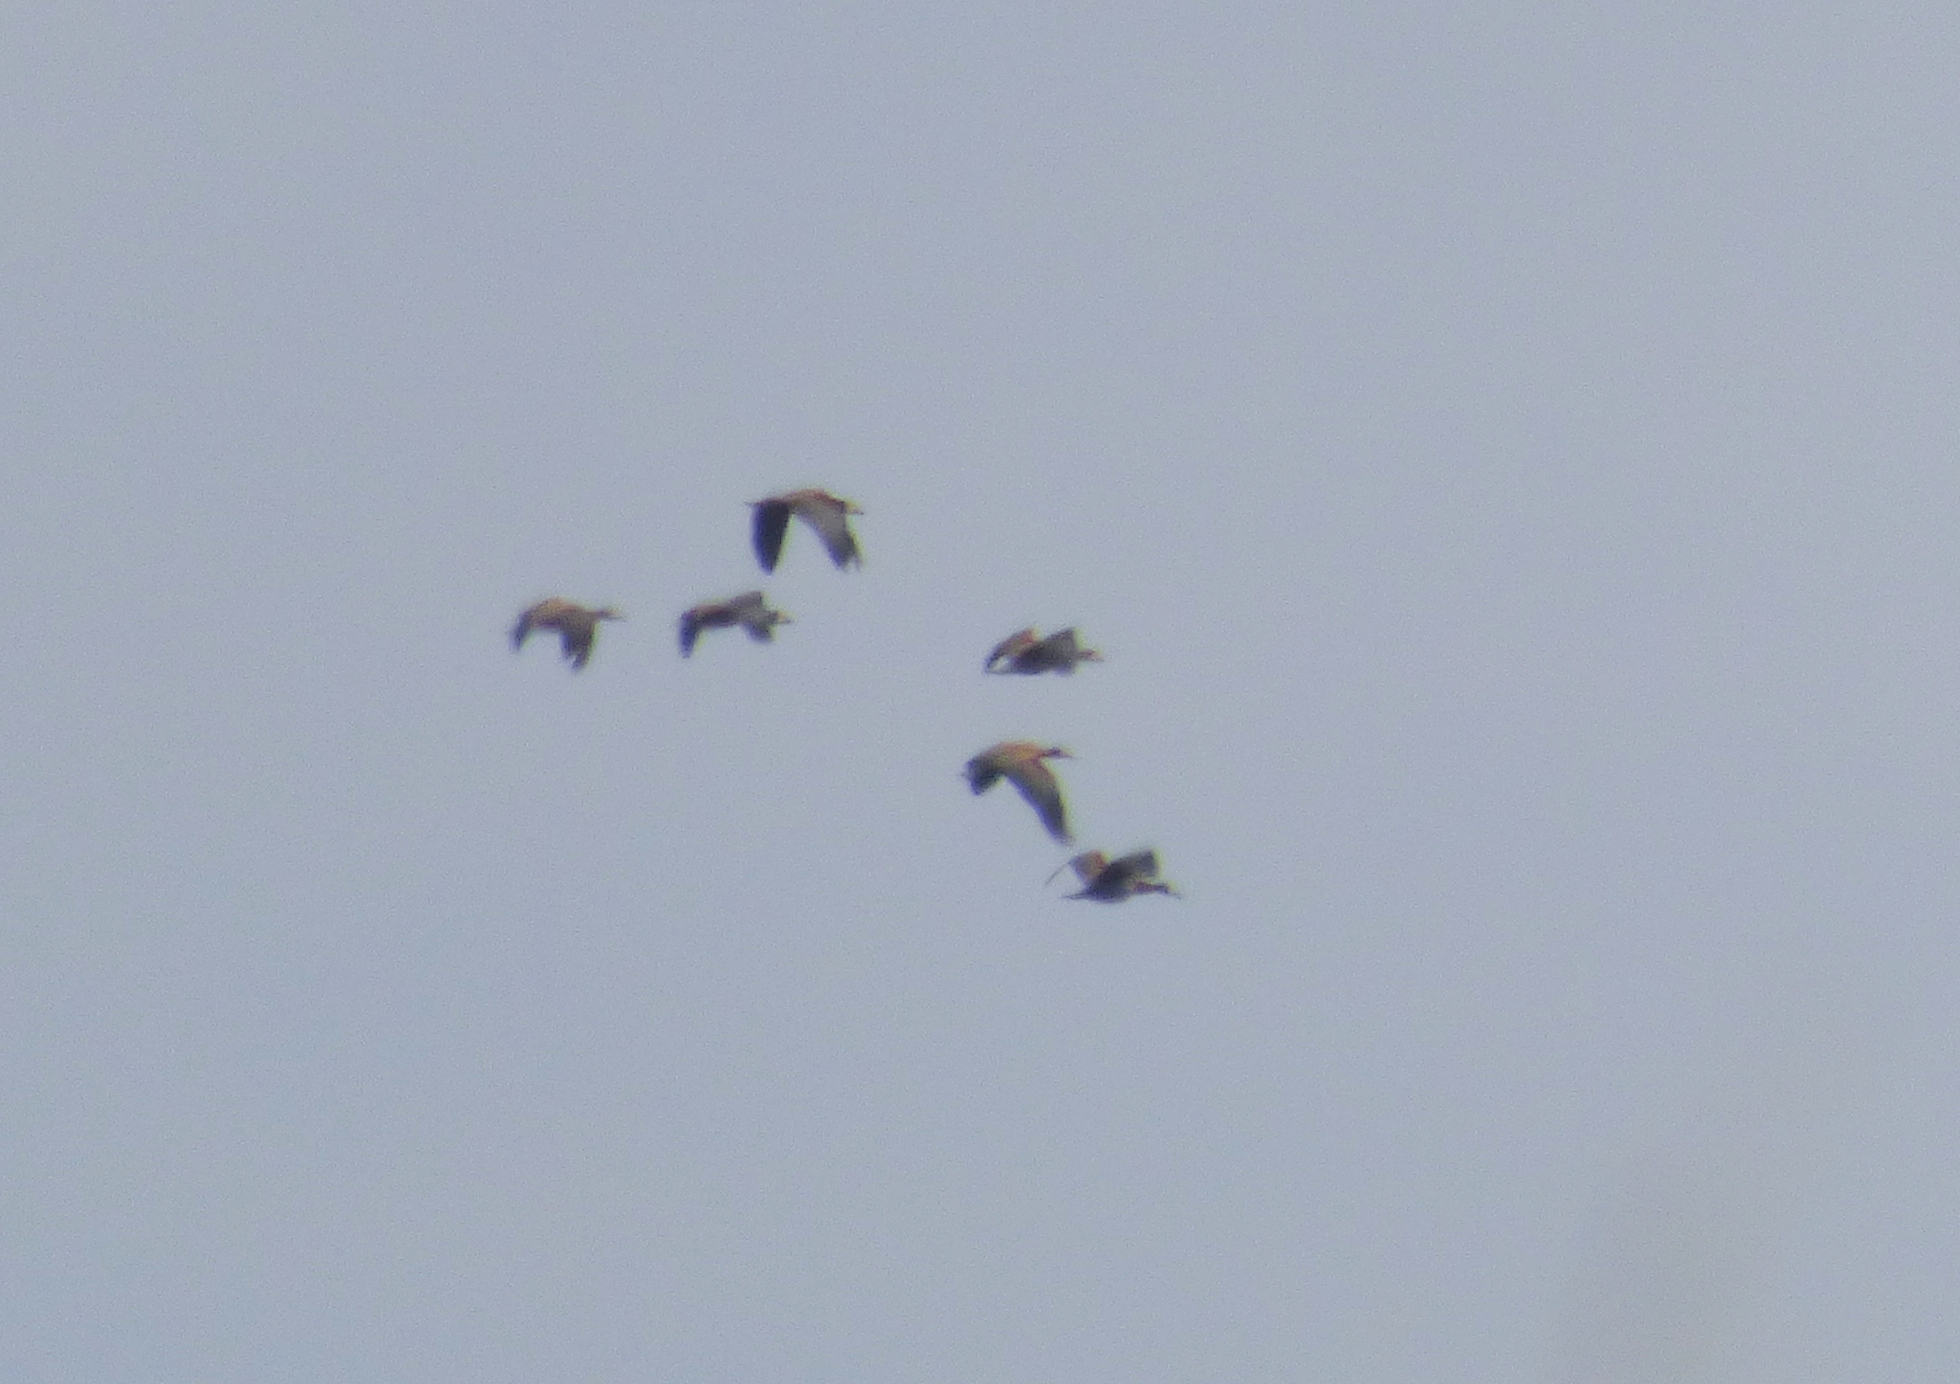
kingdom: Animalia
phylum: Chordata
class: Aves
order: Anseriformes
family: Anatidae
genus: Dendrocygna
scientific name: Dendrocygna viduata
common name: White-faced whistling duck
